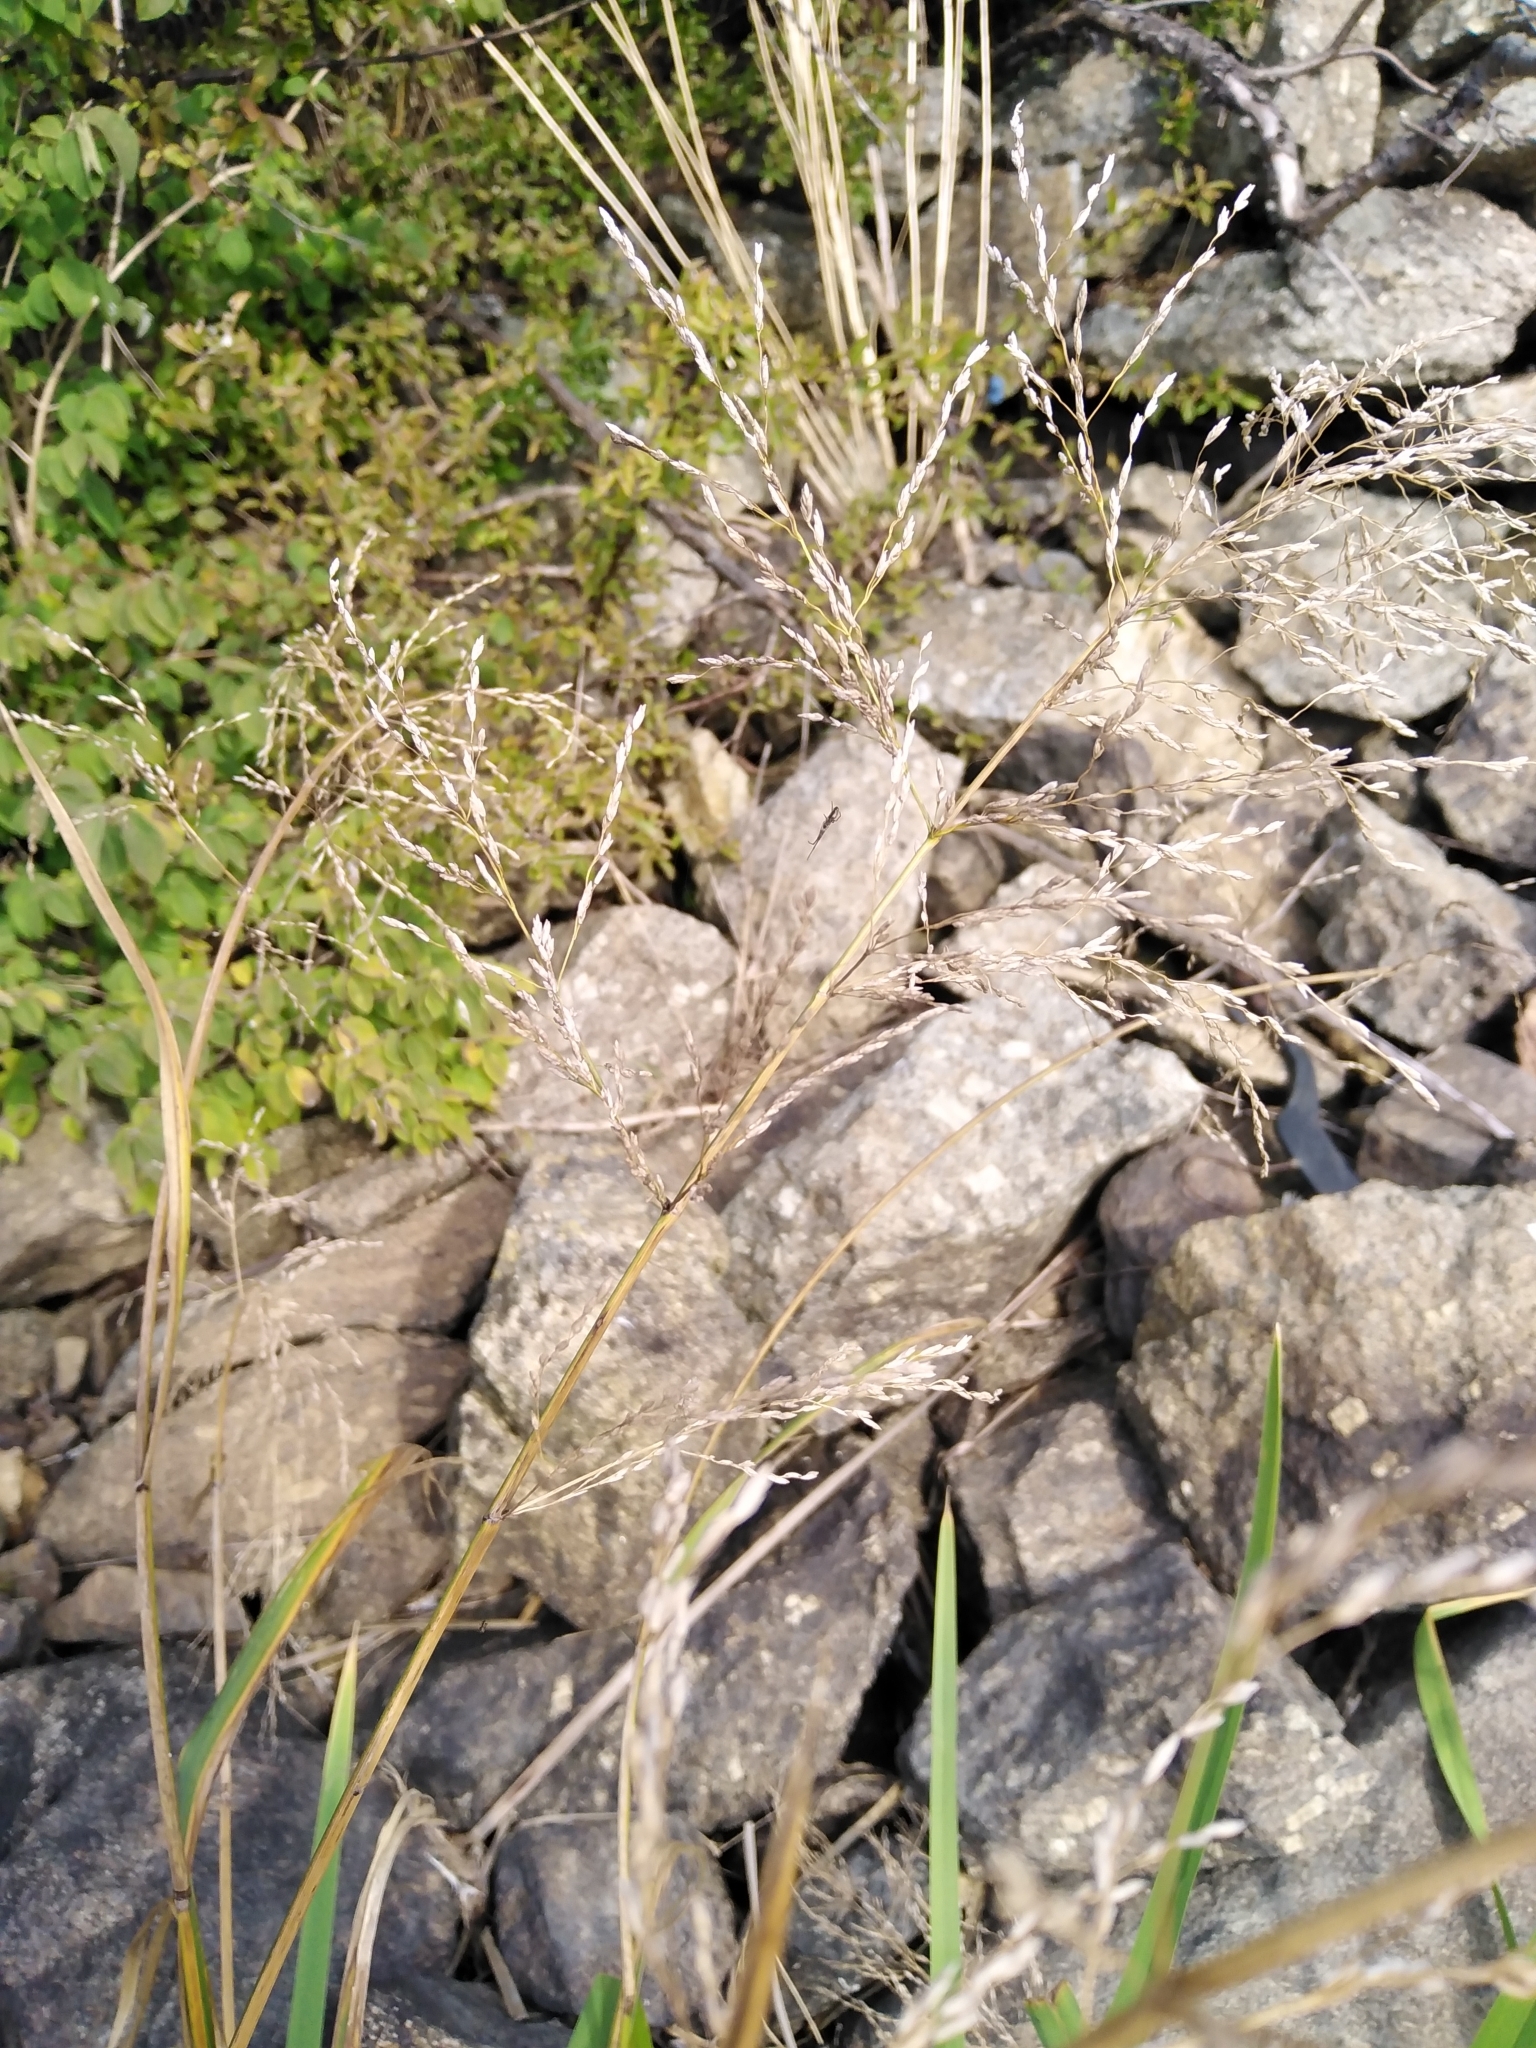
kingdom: Plantae
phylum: Tracheophyta
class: Liliopsida
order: Poales
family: Poaceae
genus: Glyceria
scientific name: Glyceria maxima
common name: Reed mannagrass
